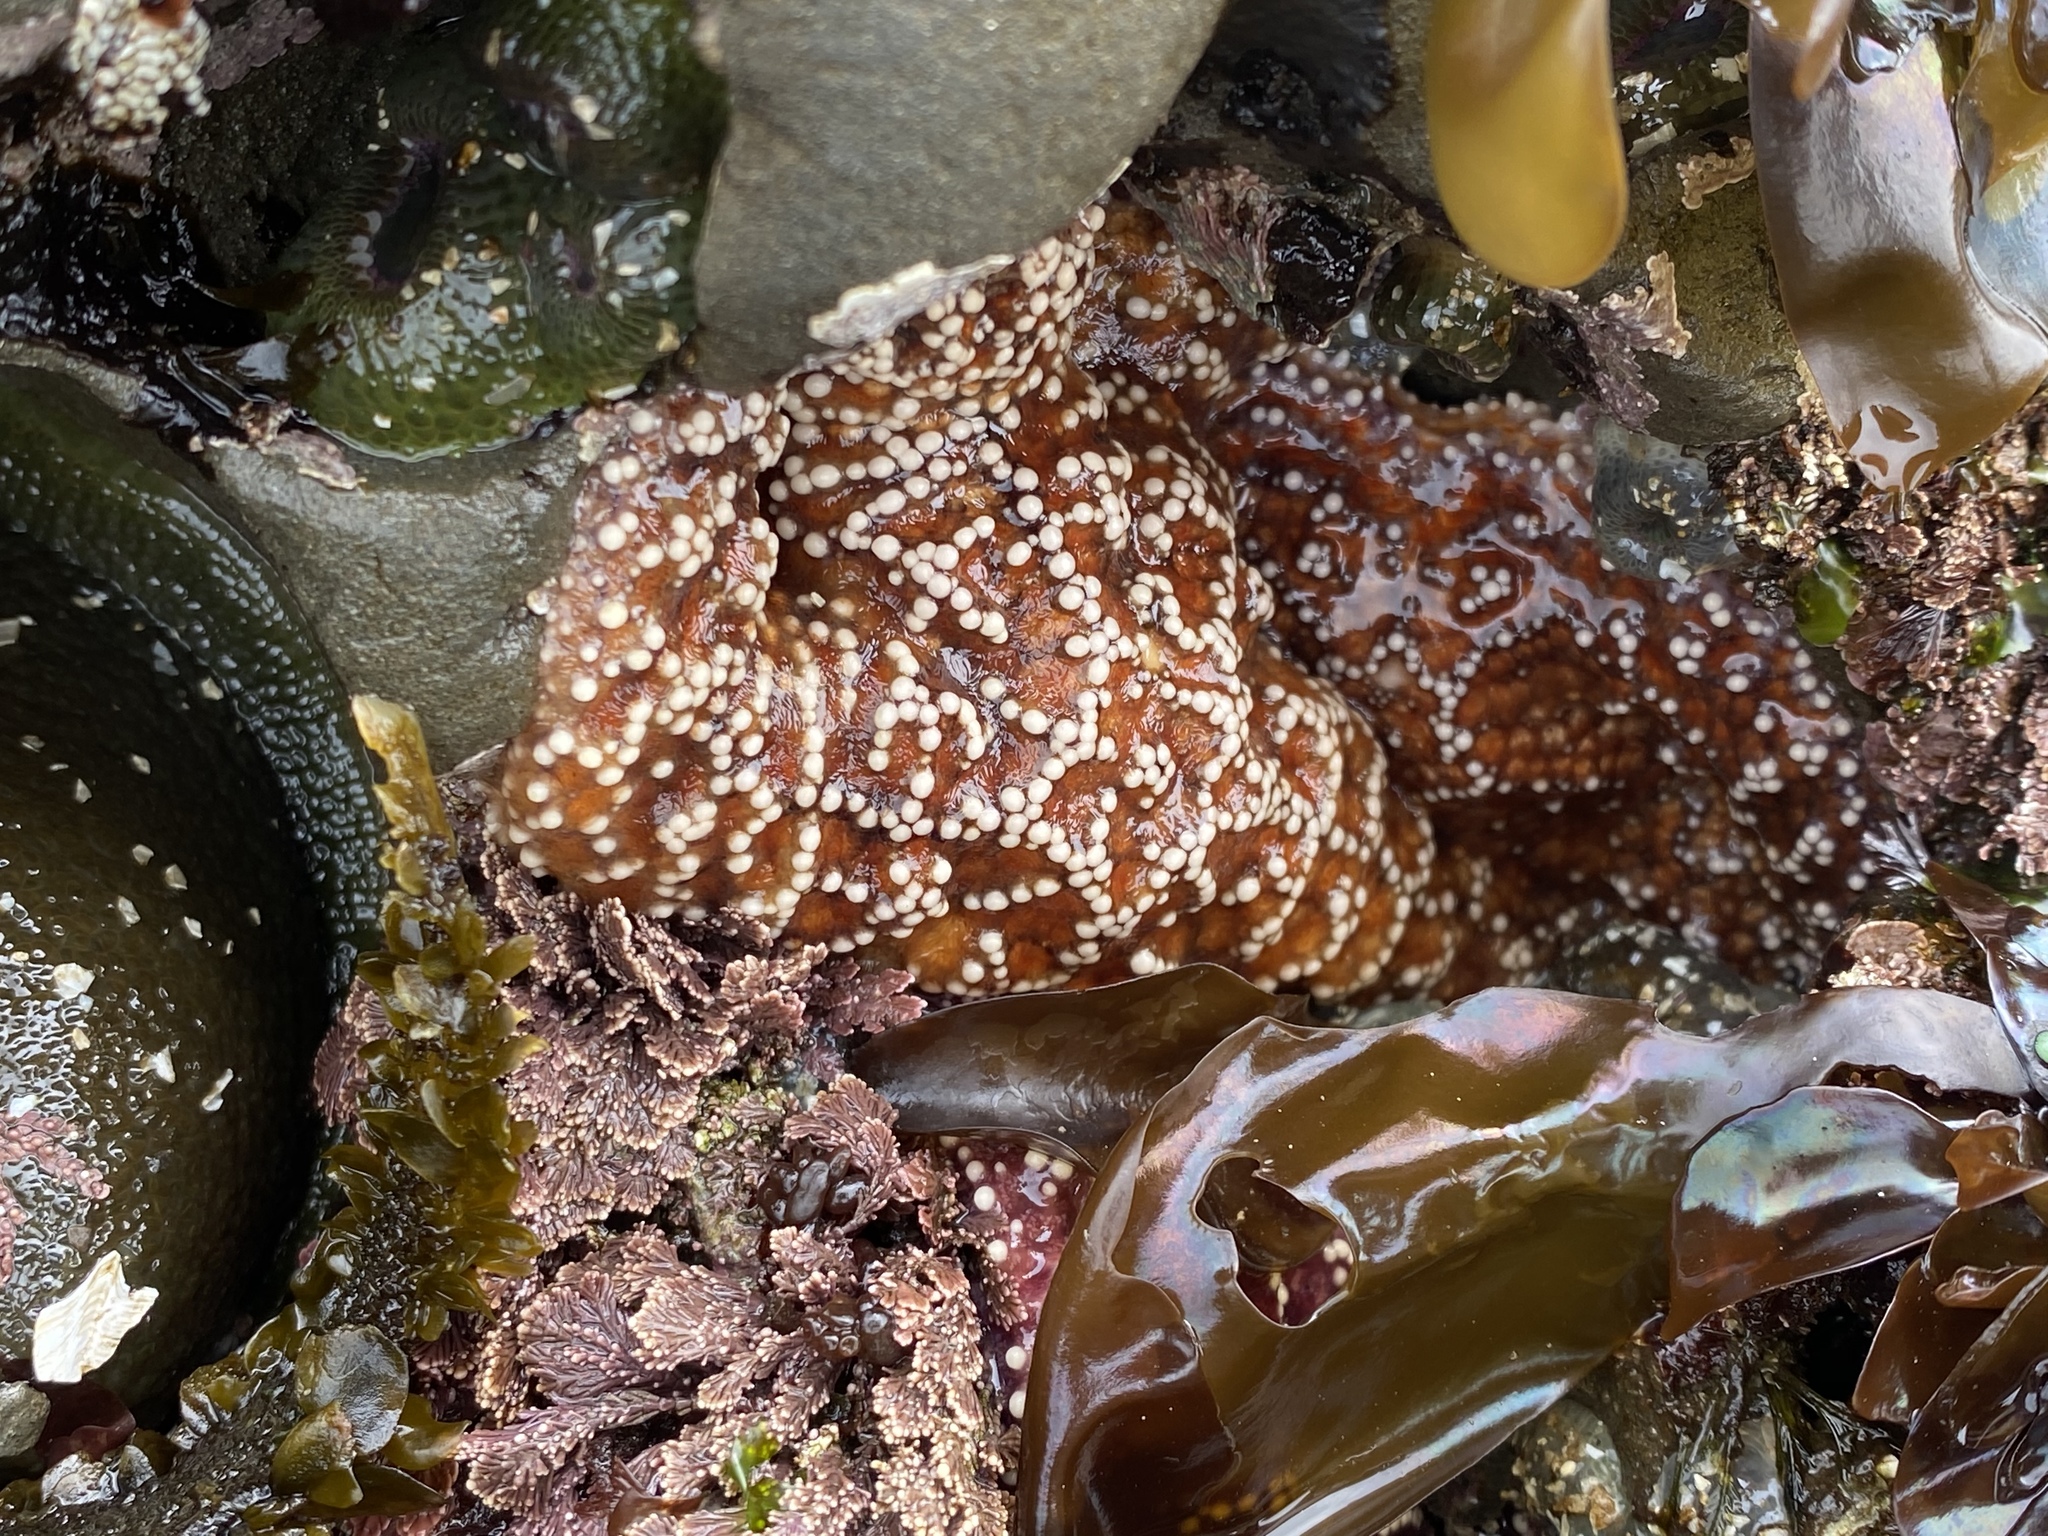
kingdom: Animalia
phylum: Echinodermata
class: Asteroidea
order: Forcipulatida
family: Asteriidae
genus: Pisaster
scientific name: Pisaster ochraceus
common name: Ochre stars
